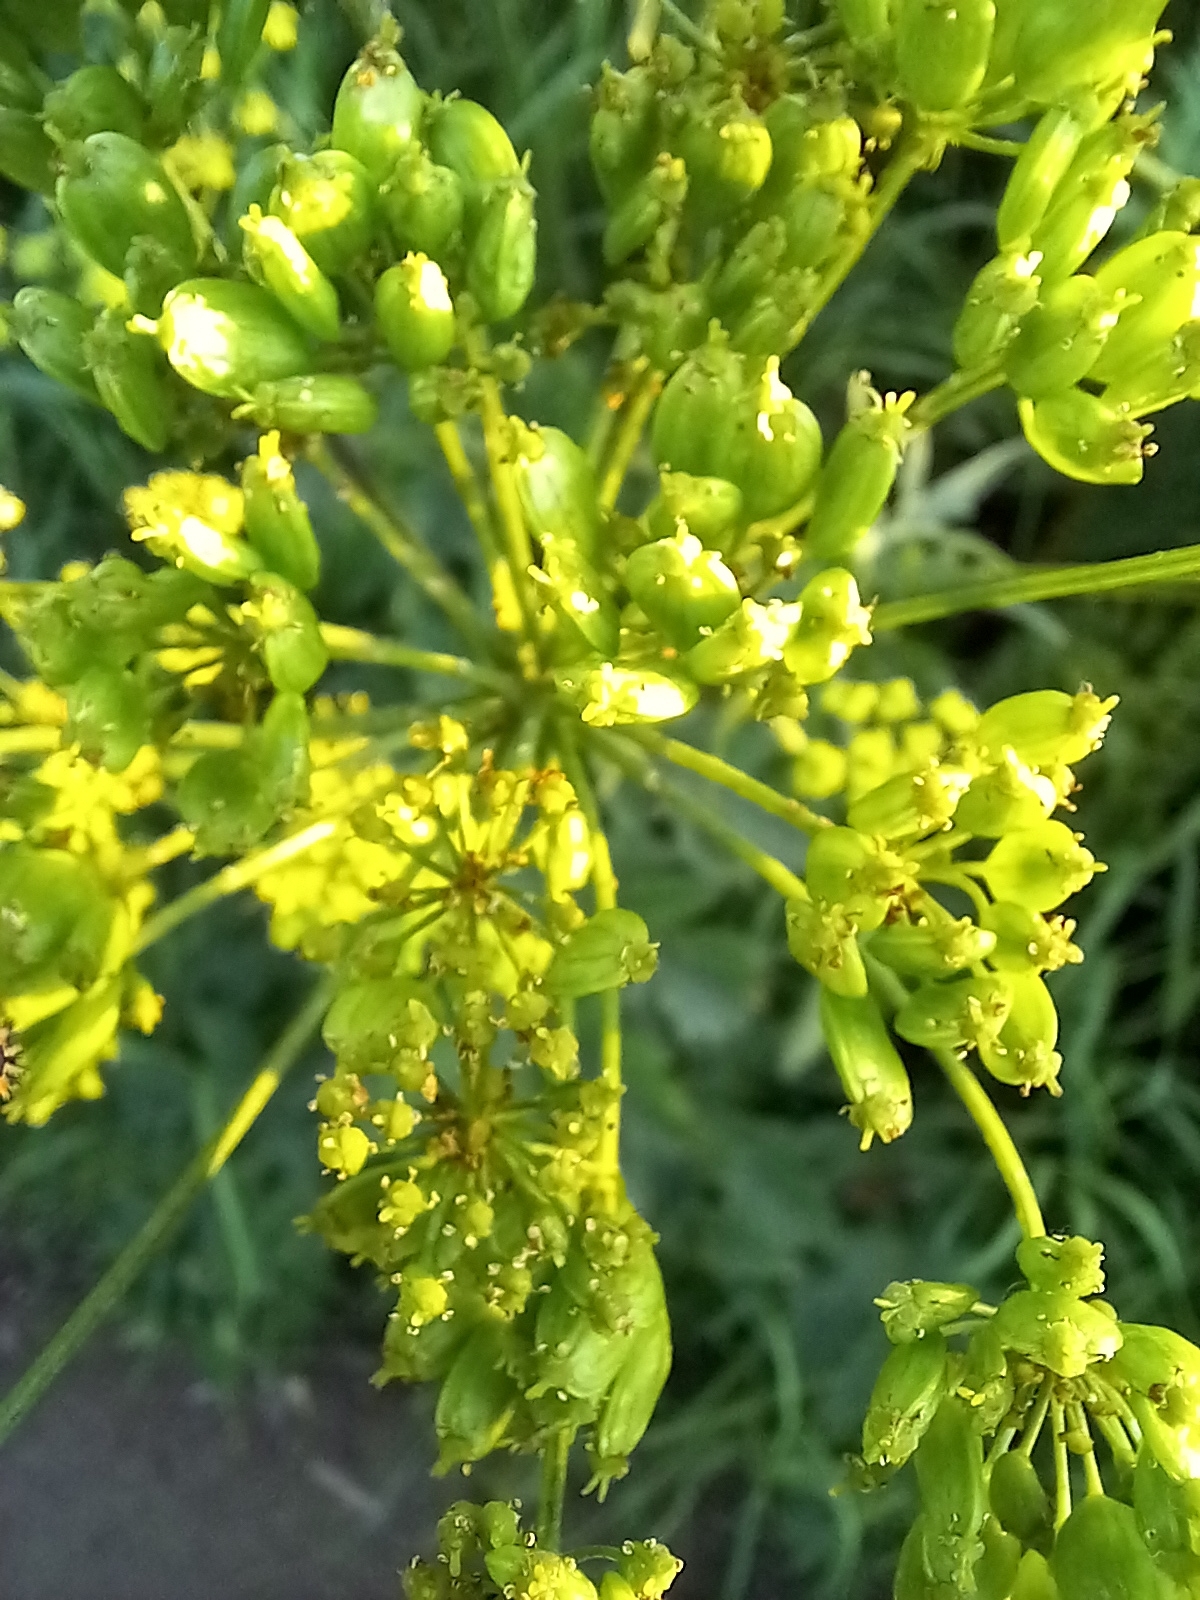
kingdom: Plantae
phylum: Tracheophyta
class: Magnoliopsida
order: Apiales
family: Apiaceae
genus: Heracleum
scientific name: Heracleum sphondylium
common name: Hogweed
